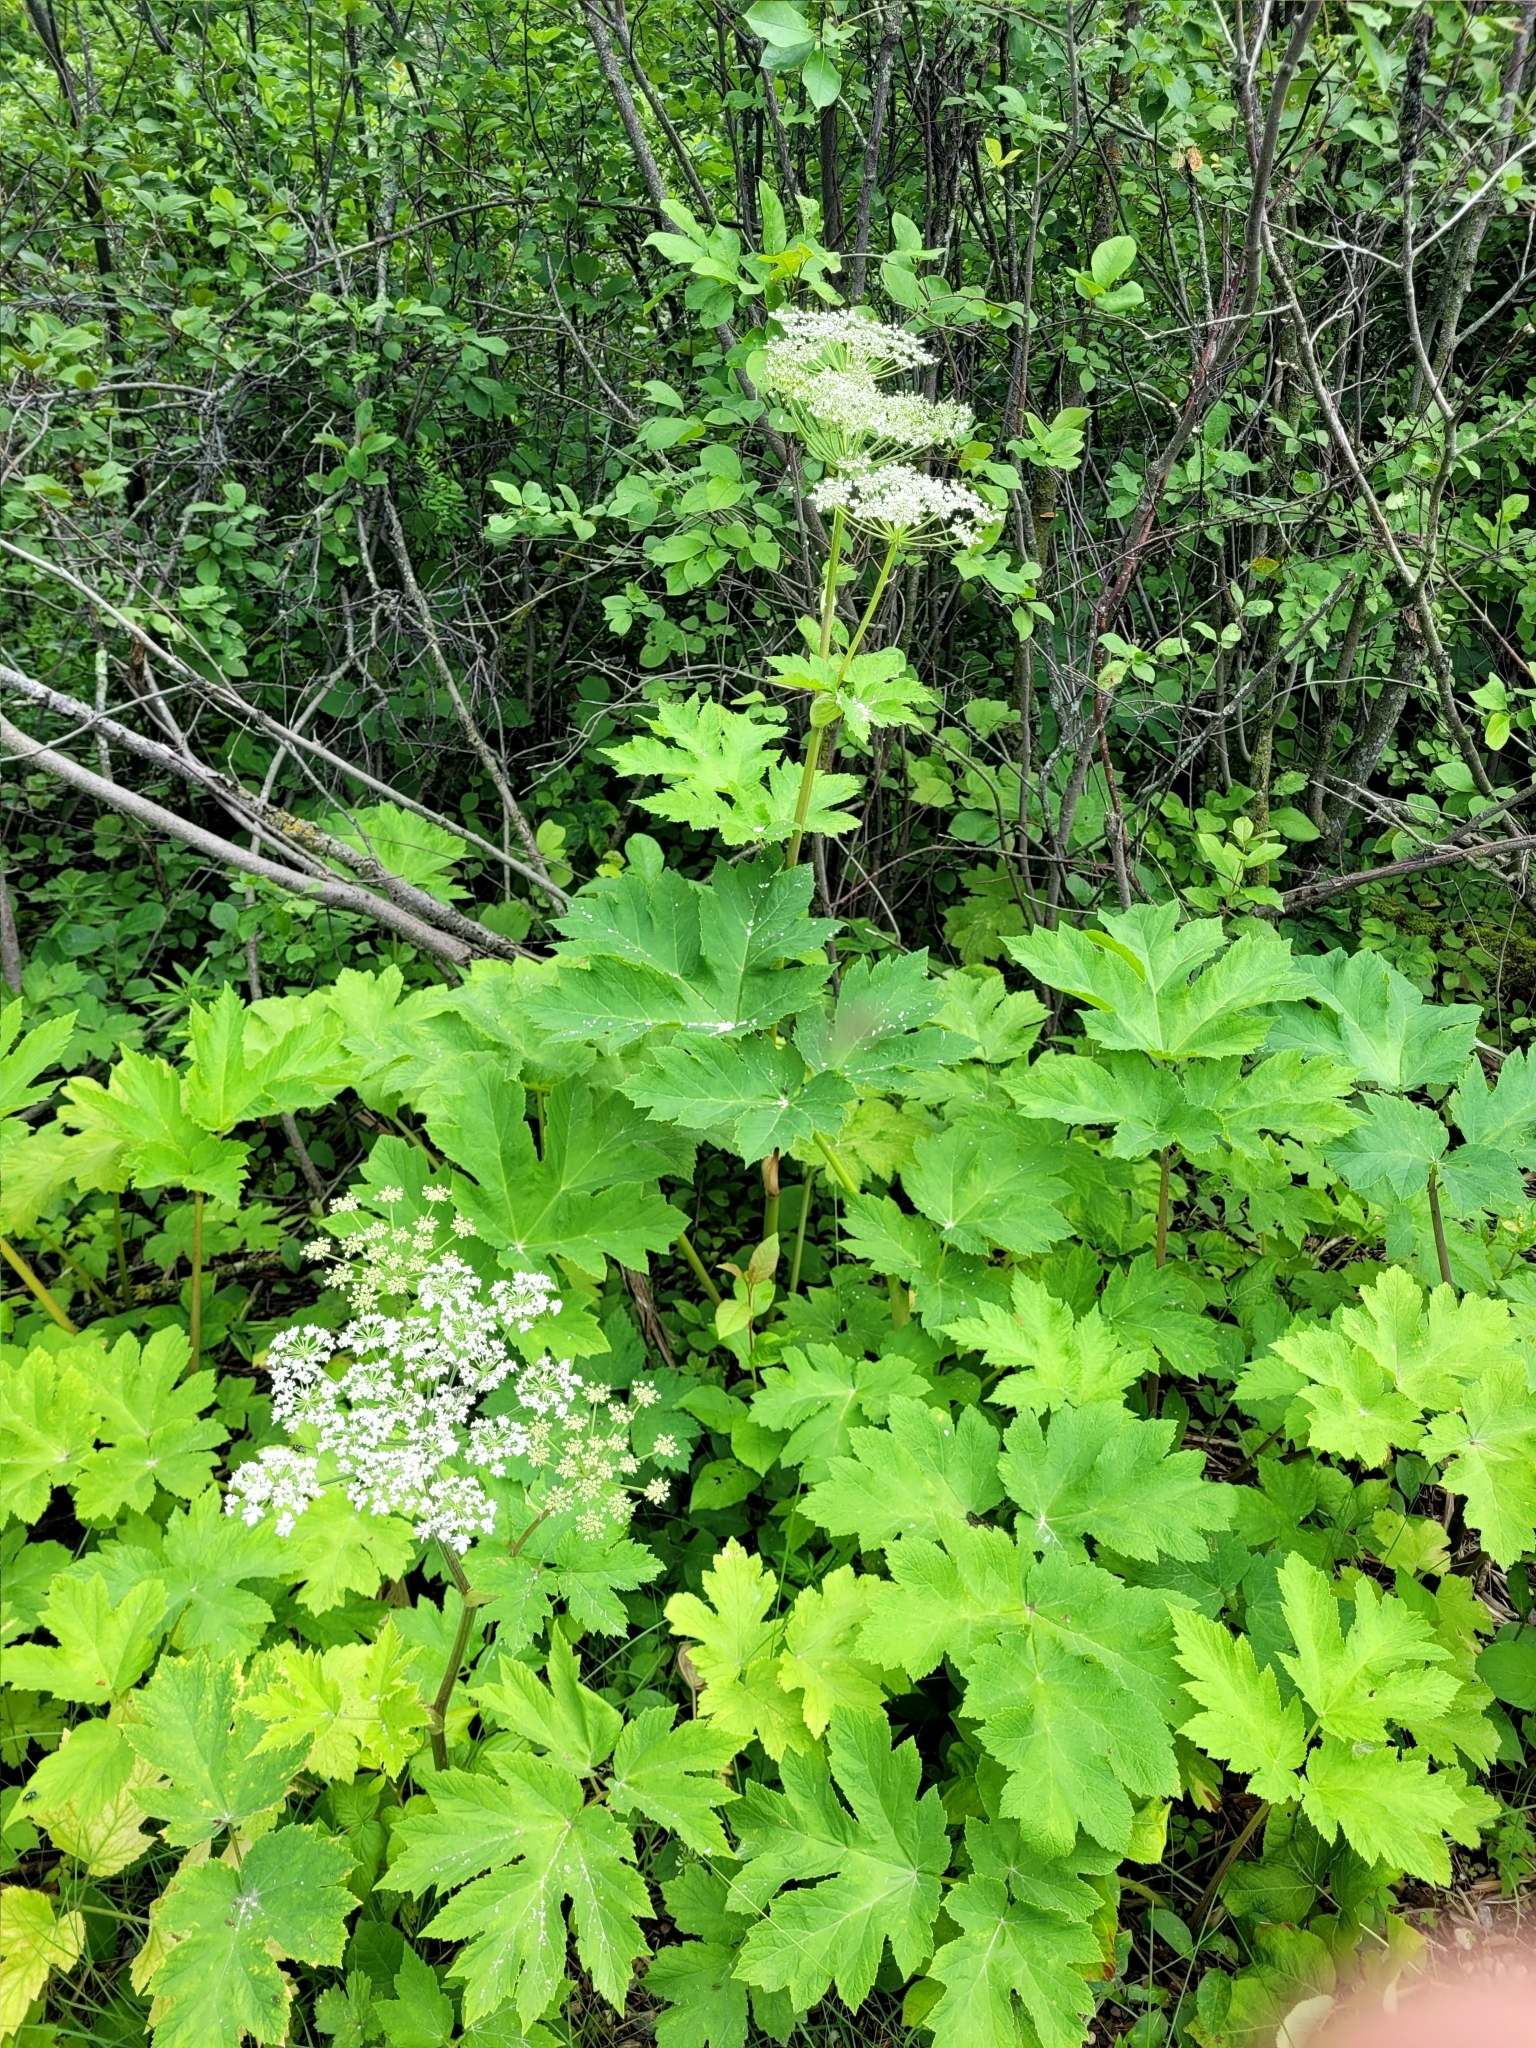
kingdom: Plantae
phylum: Tracheophyta
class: Magnoliopsida
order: Apiales
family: Apiaceae
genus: Heracleum
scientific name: Heracleum maximum
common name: American cow parsnip
